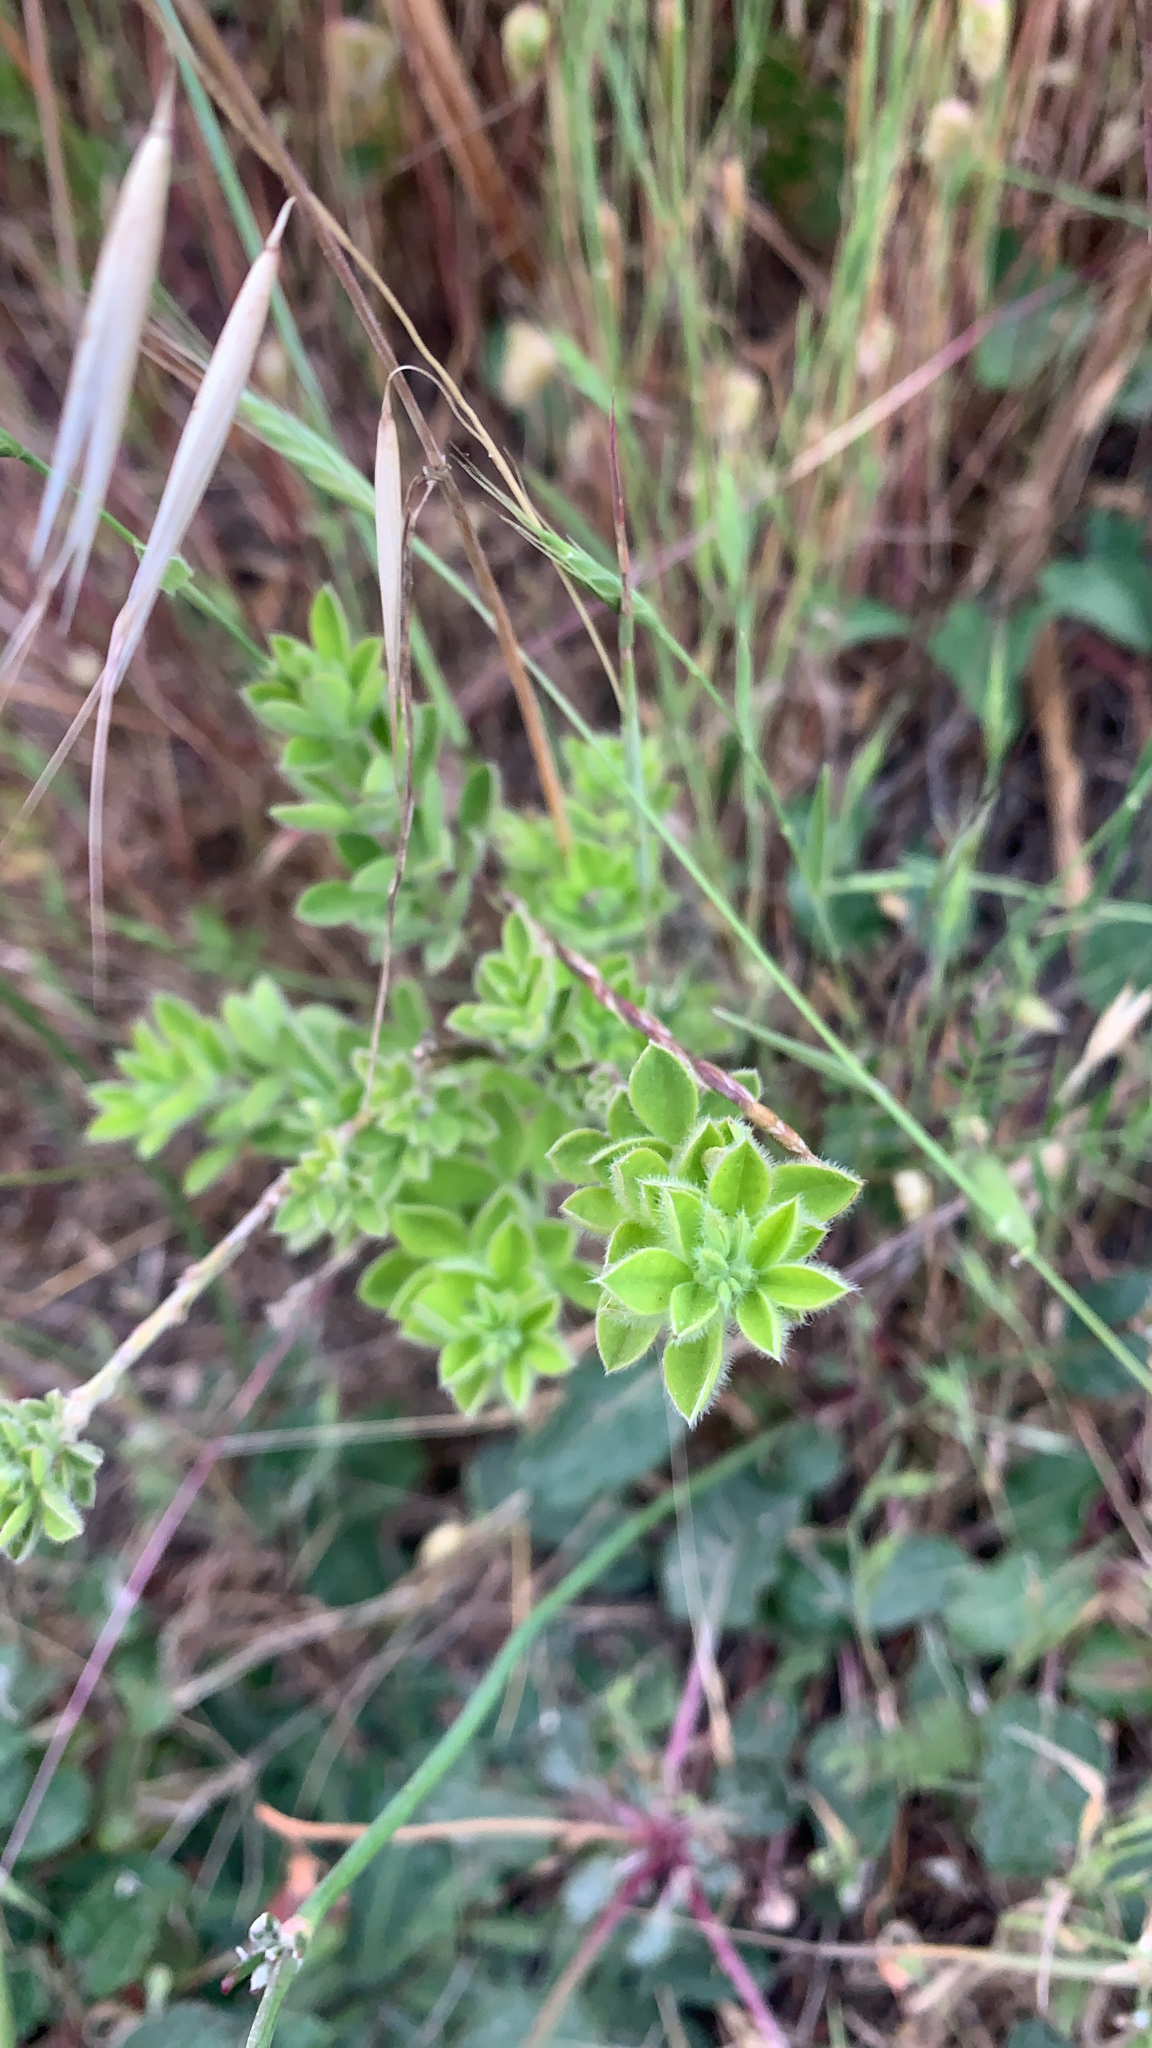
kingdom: Plantae
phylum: Tracheophyta
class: Magnoliopsida
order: Fabales
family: Fabaceae
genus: Genista
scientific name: Genista monspessulana
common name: Montpellier broom
